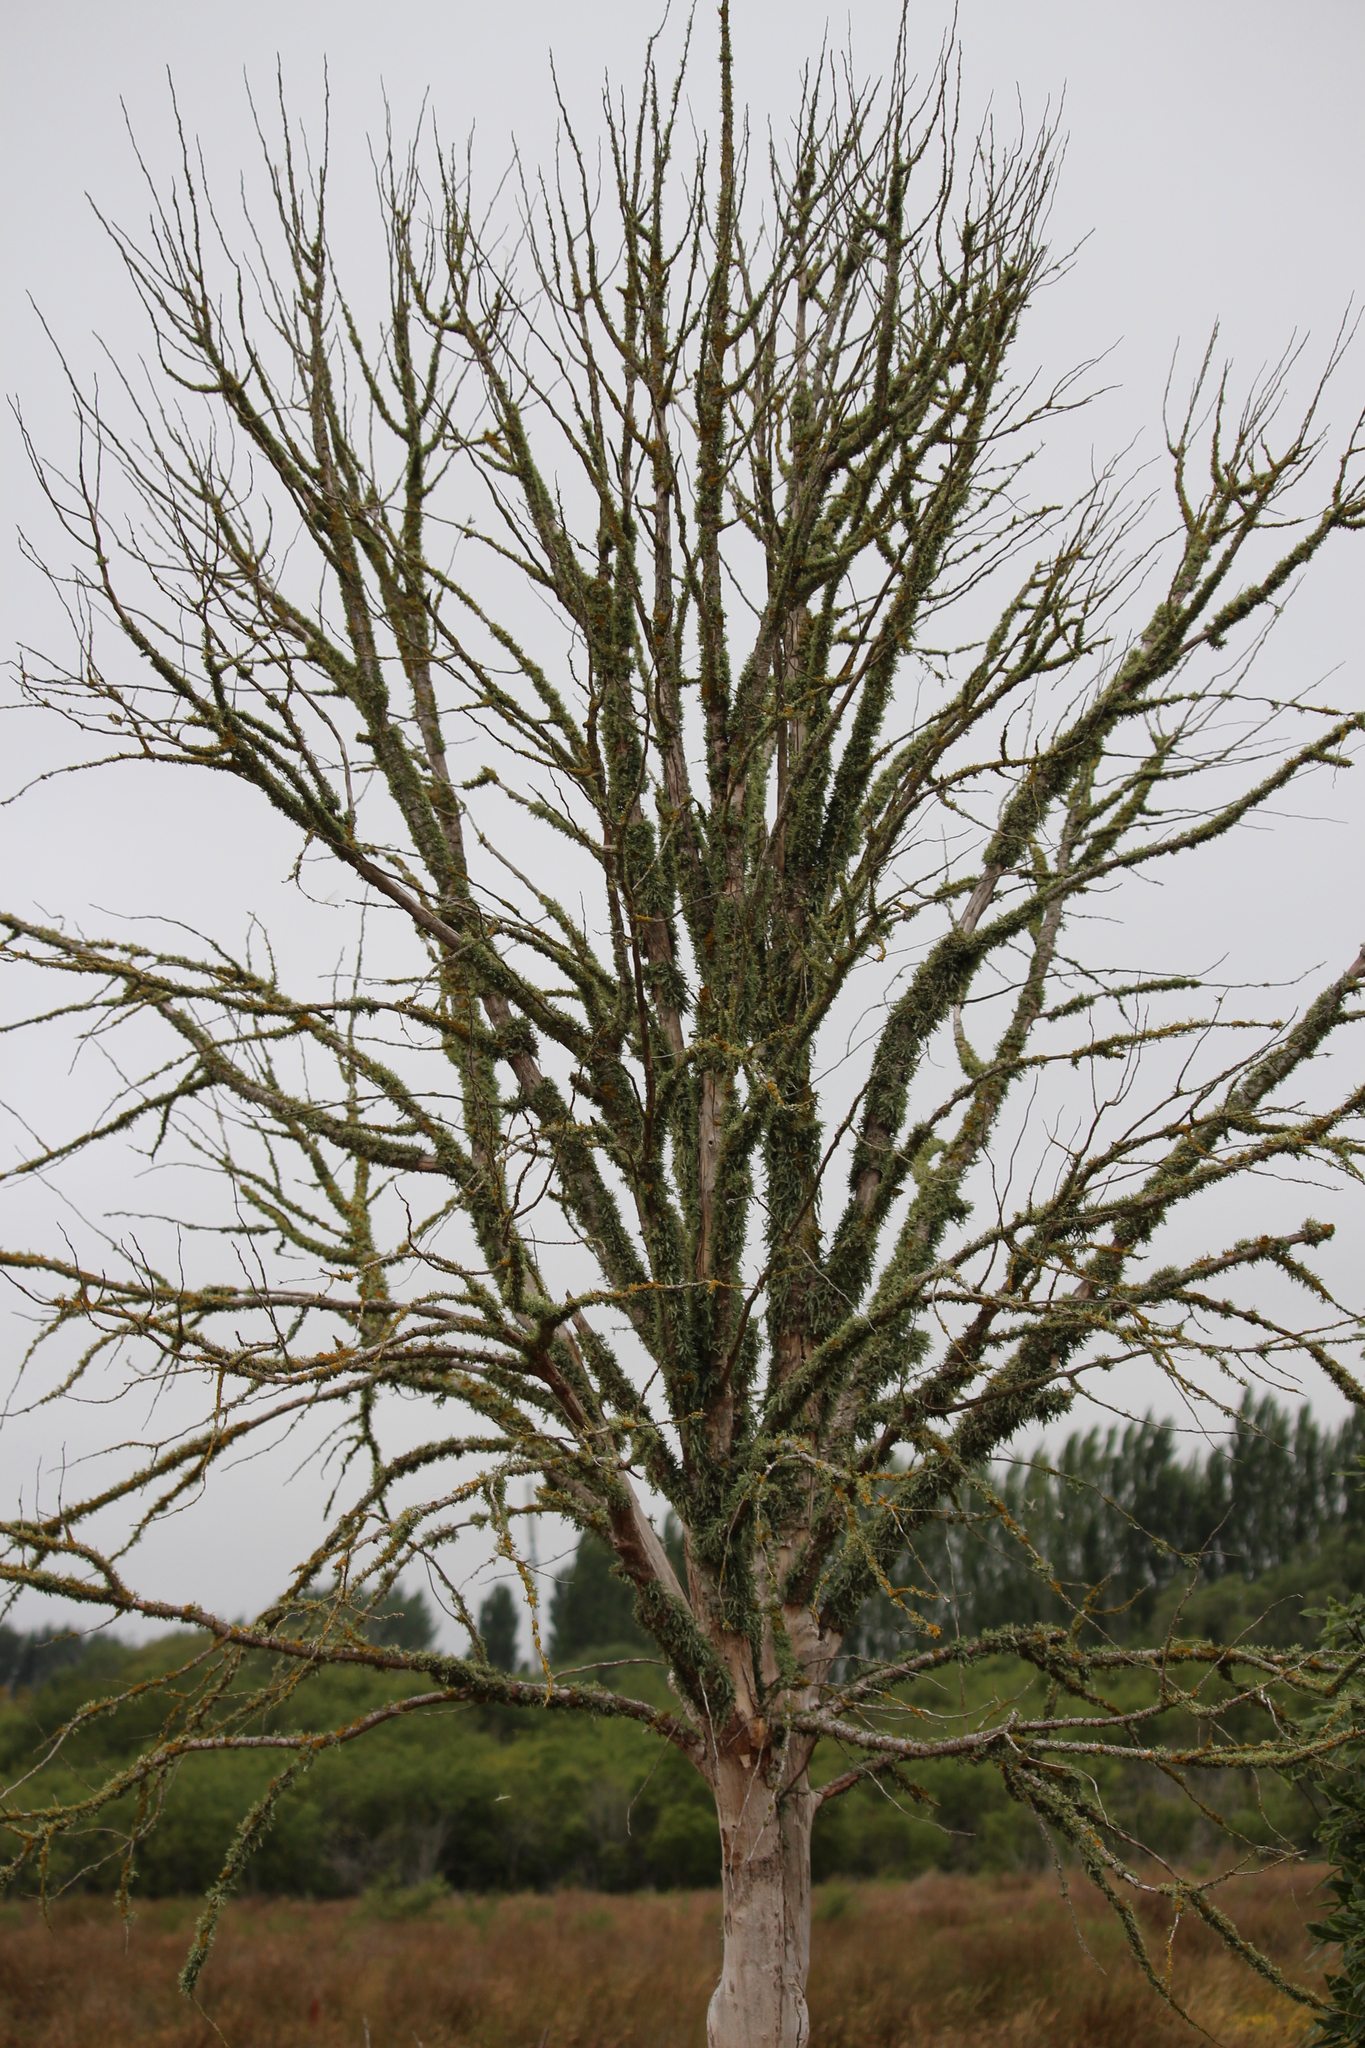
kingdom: Fungi
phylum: Ascomycota
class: Lecanoromycetes
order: Lecanorales
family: Ramalinaceae
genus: Ramalina
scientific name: Ramalina celastri
